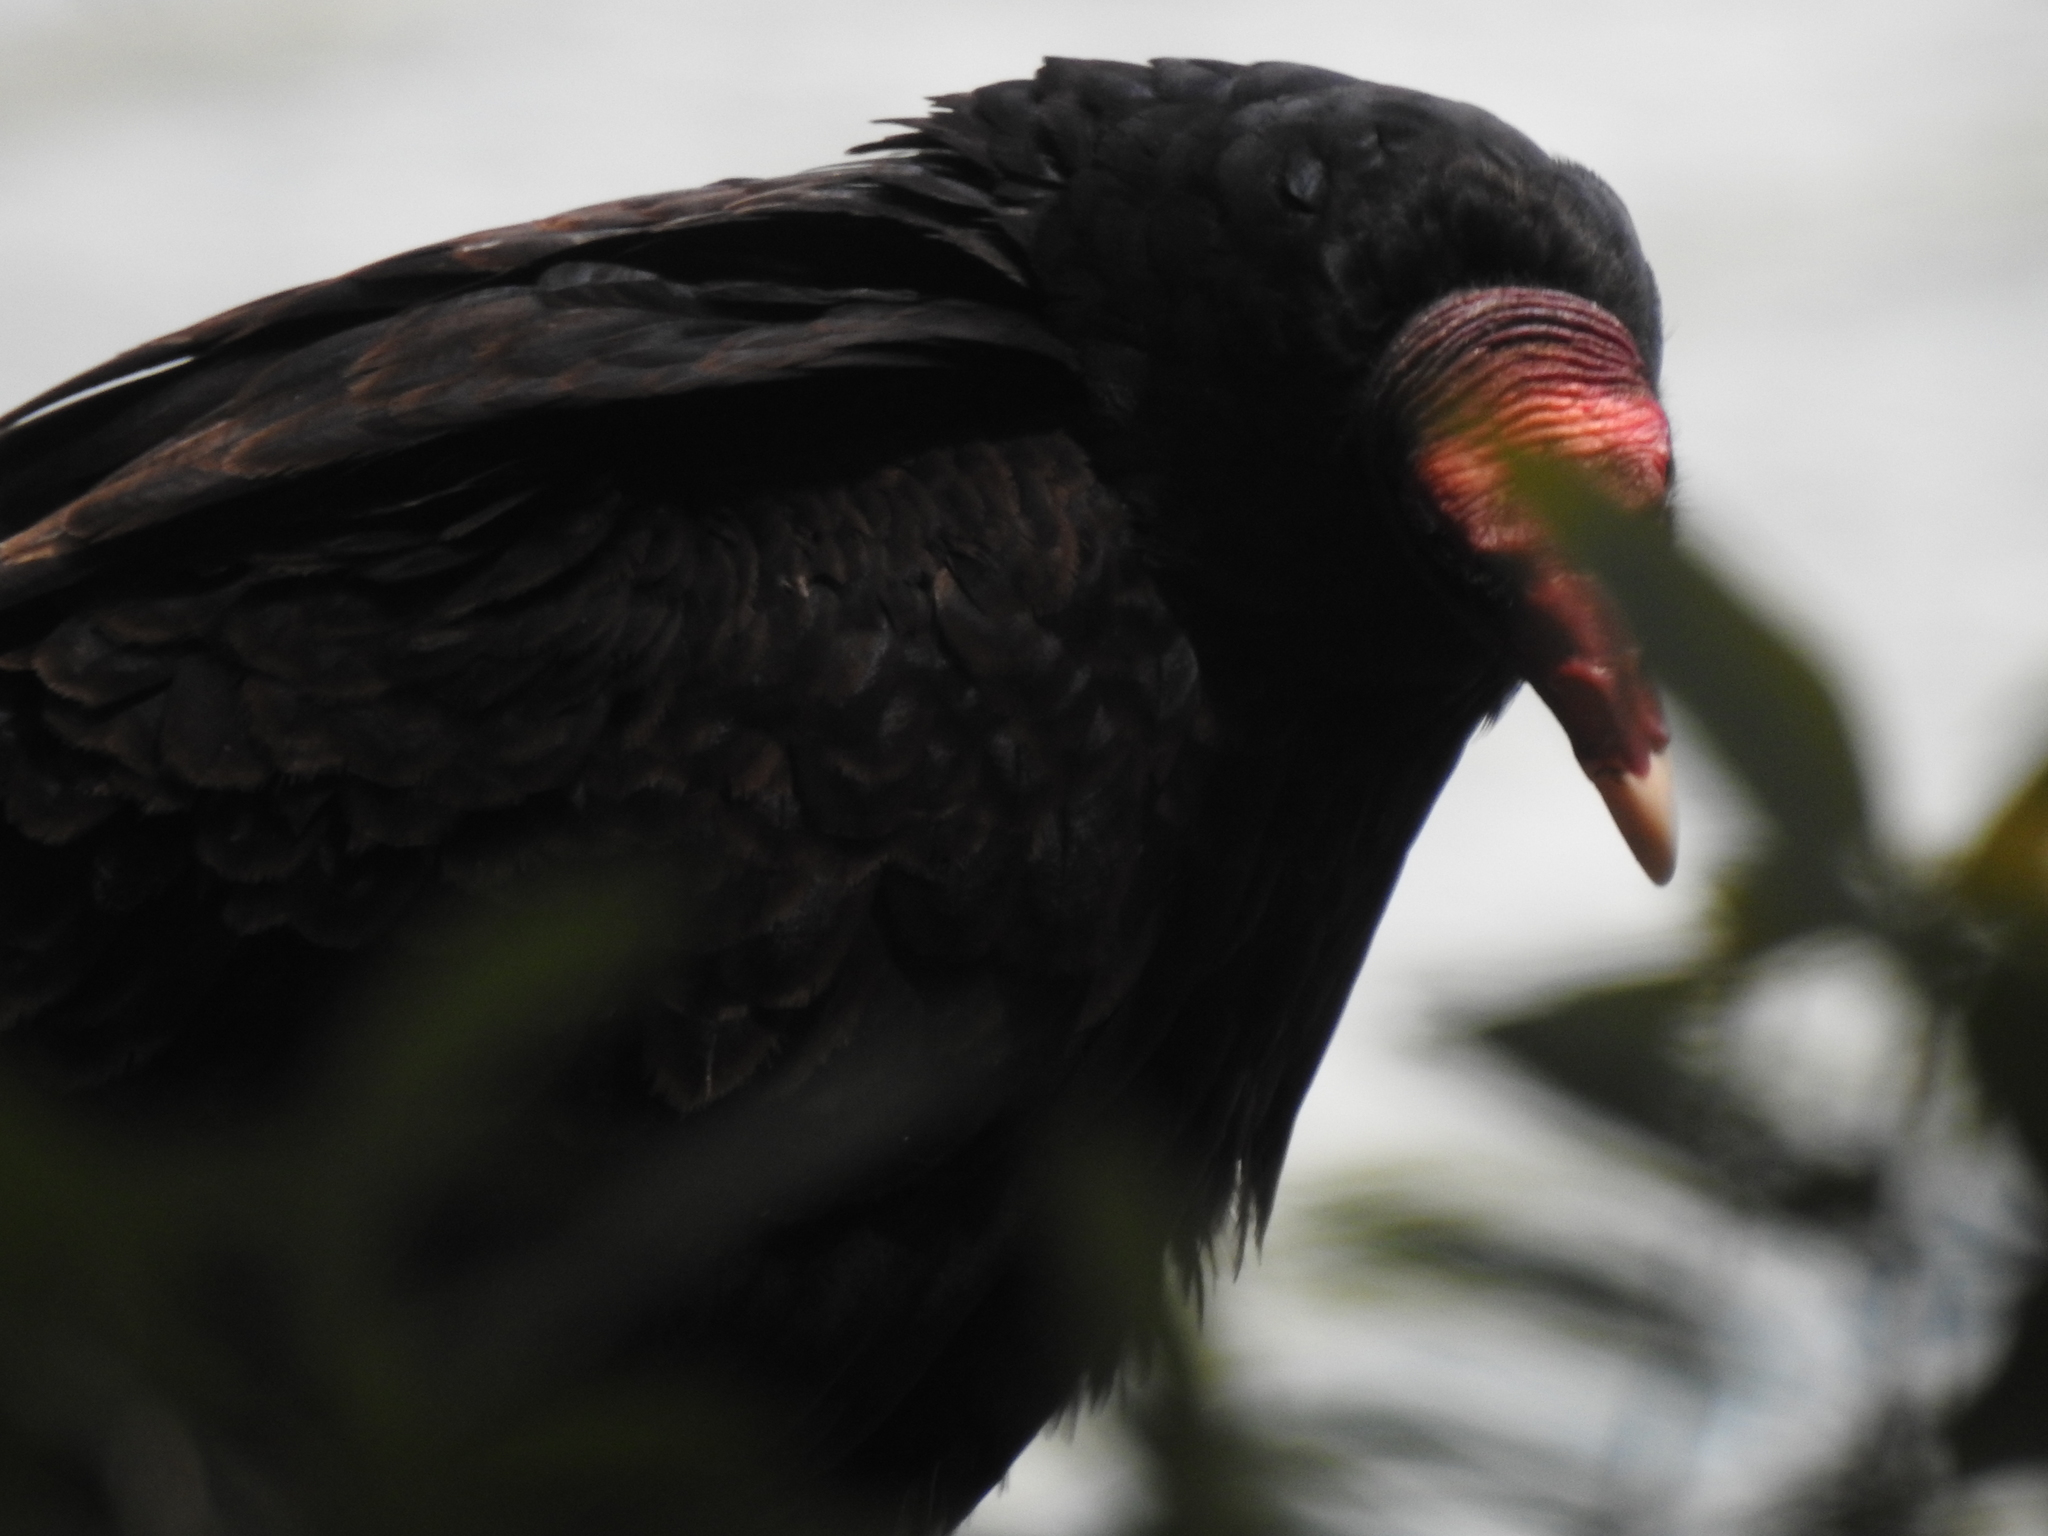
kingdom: Animalia
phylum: Chordata
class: Aves
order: Accipitriformes
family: Cathartidae
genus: Cathartes
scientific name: Cathartes aura
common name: Turkey vulture
